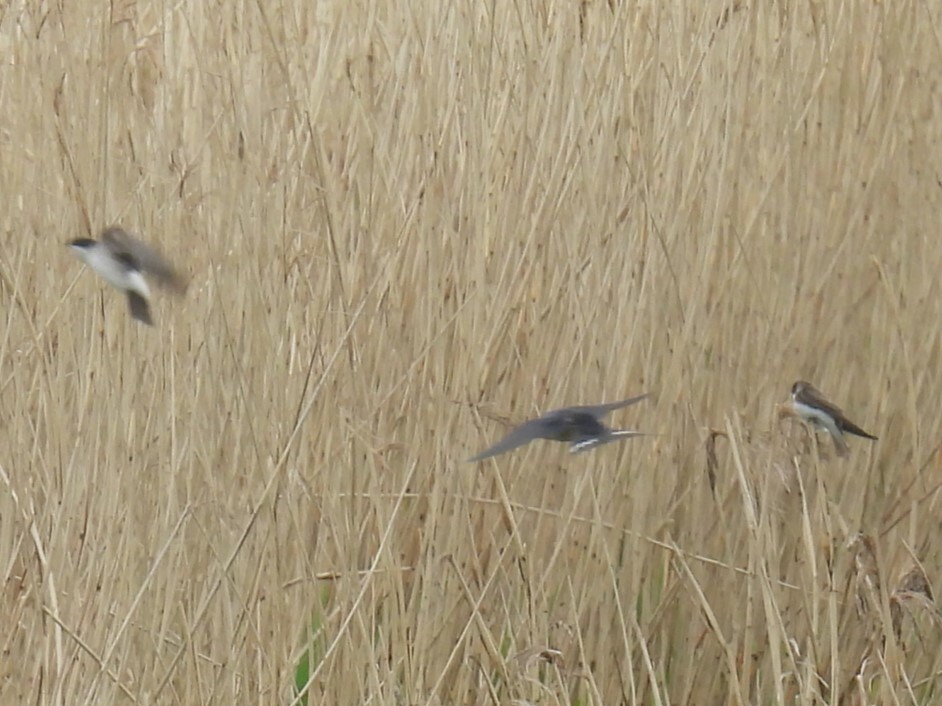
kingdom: Animalia
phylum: Chordata
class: Aves
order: Passeriformes
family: Hirundinidae
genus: Riparia
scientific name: Riparia riparia
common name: Sand martin
